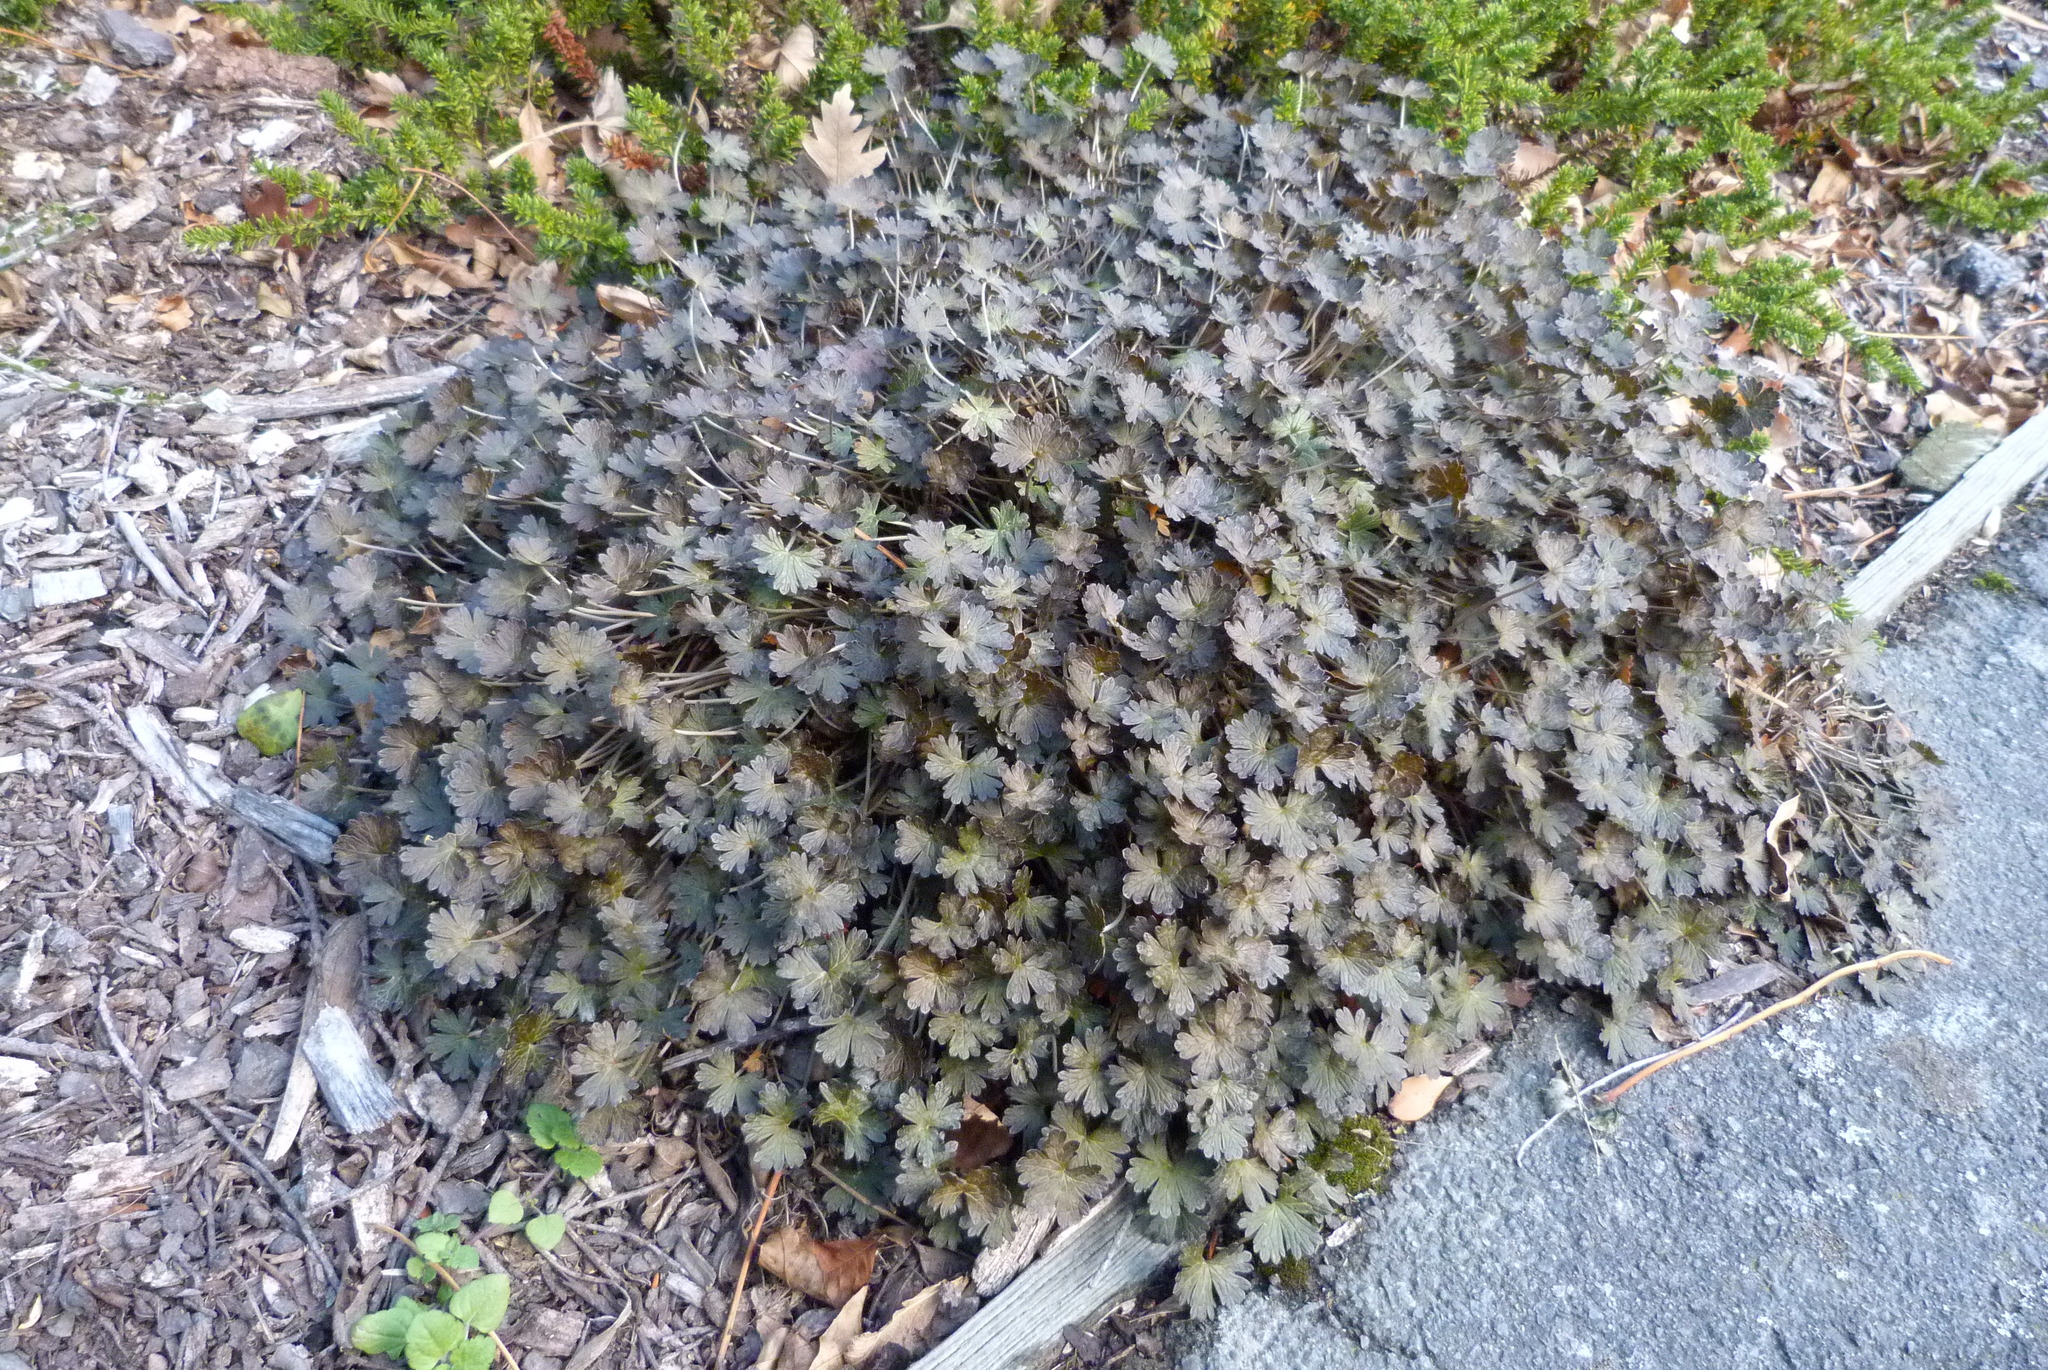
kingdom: Plantae
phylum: Tracheophyta
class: Magnoliopsida
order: Geraniales
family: Geraniaceae
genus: Geranium
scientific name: Geranium brevicaule
